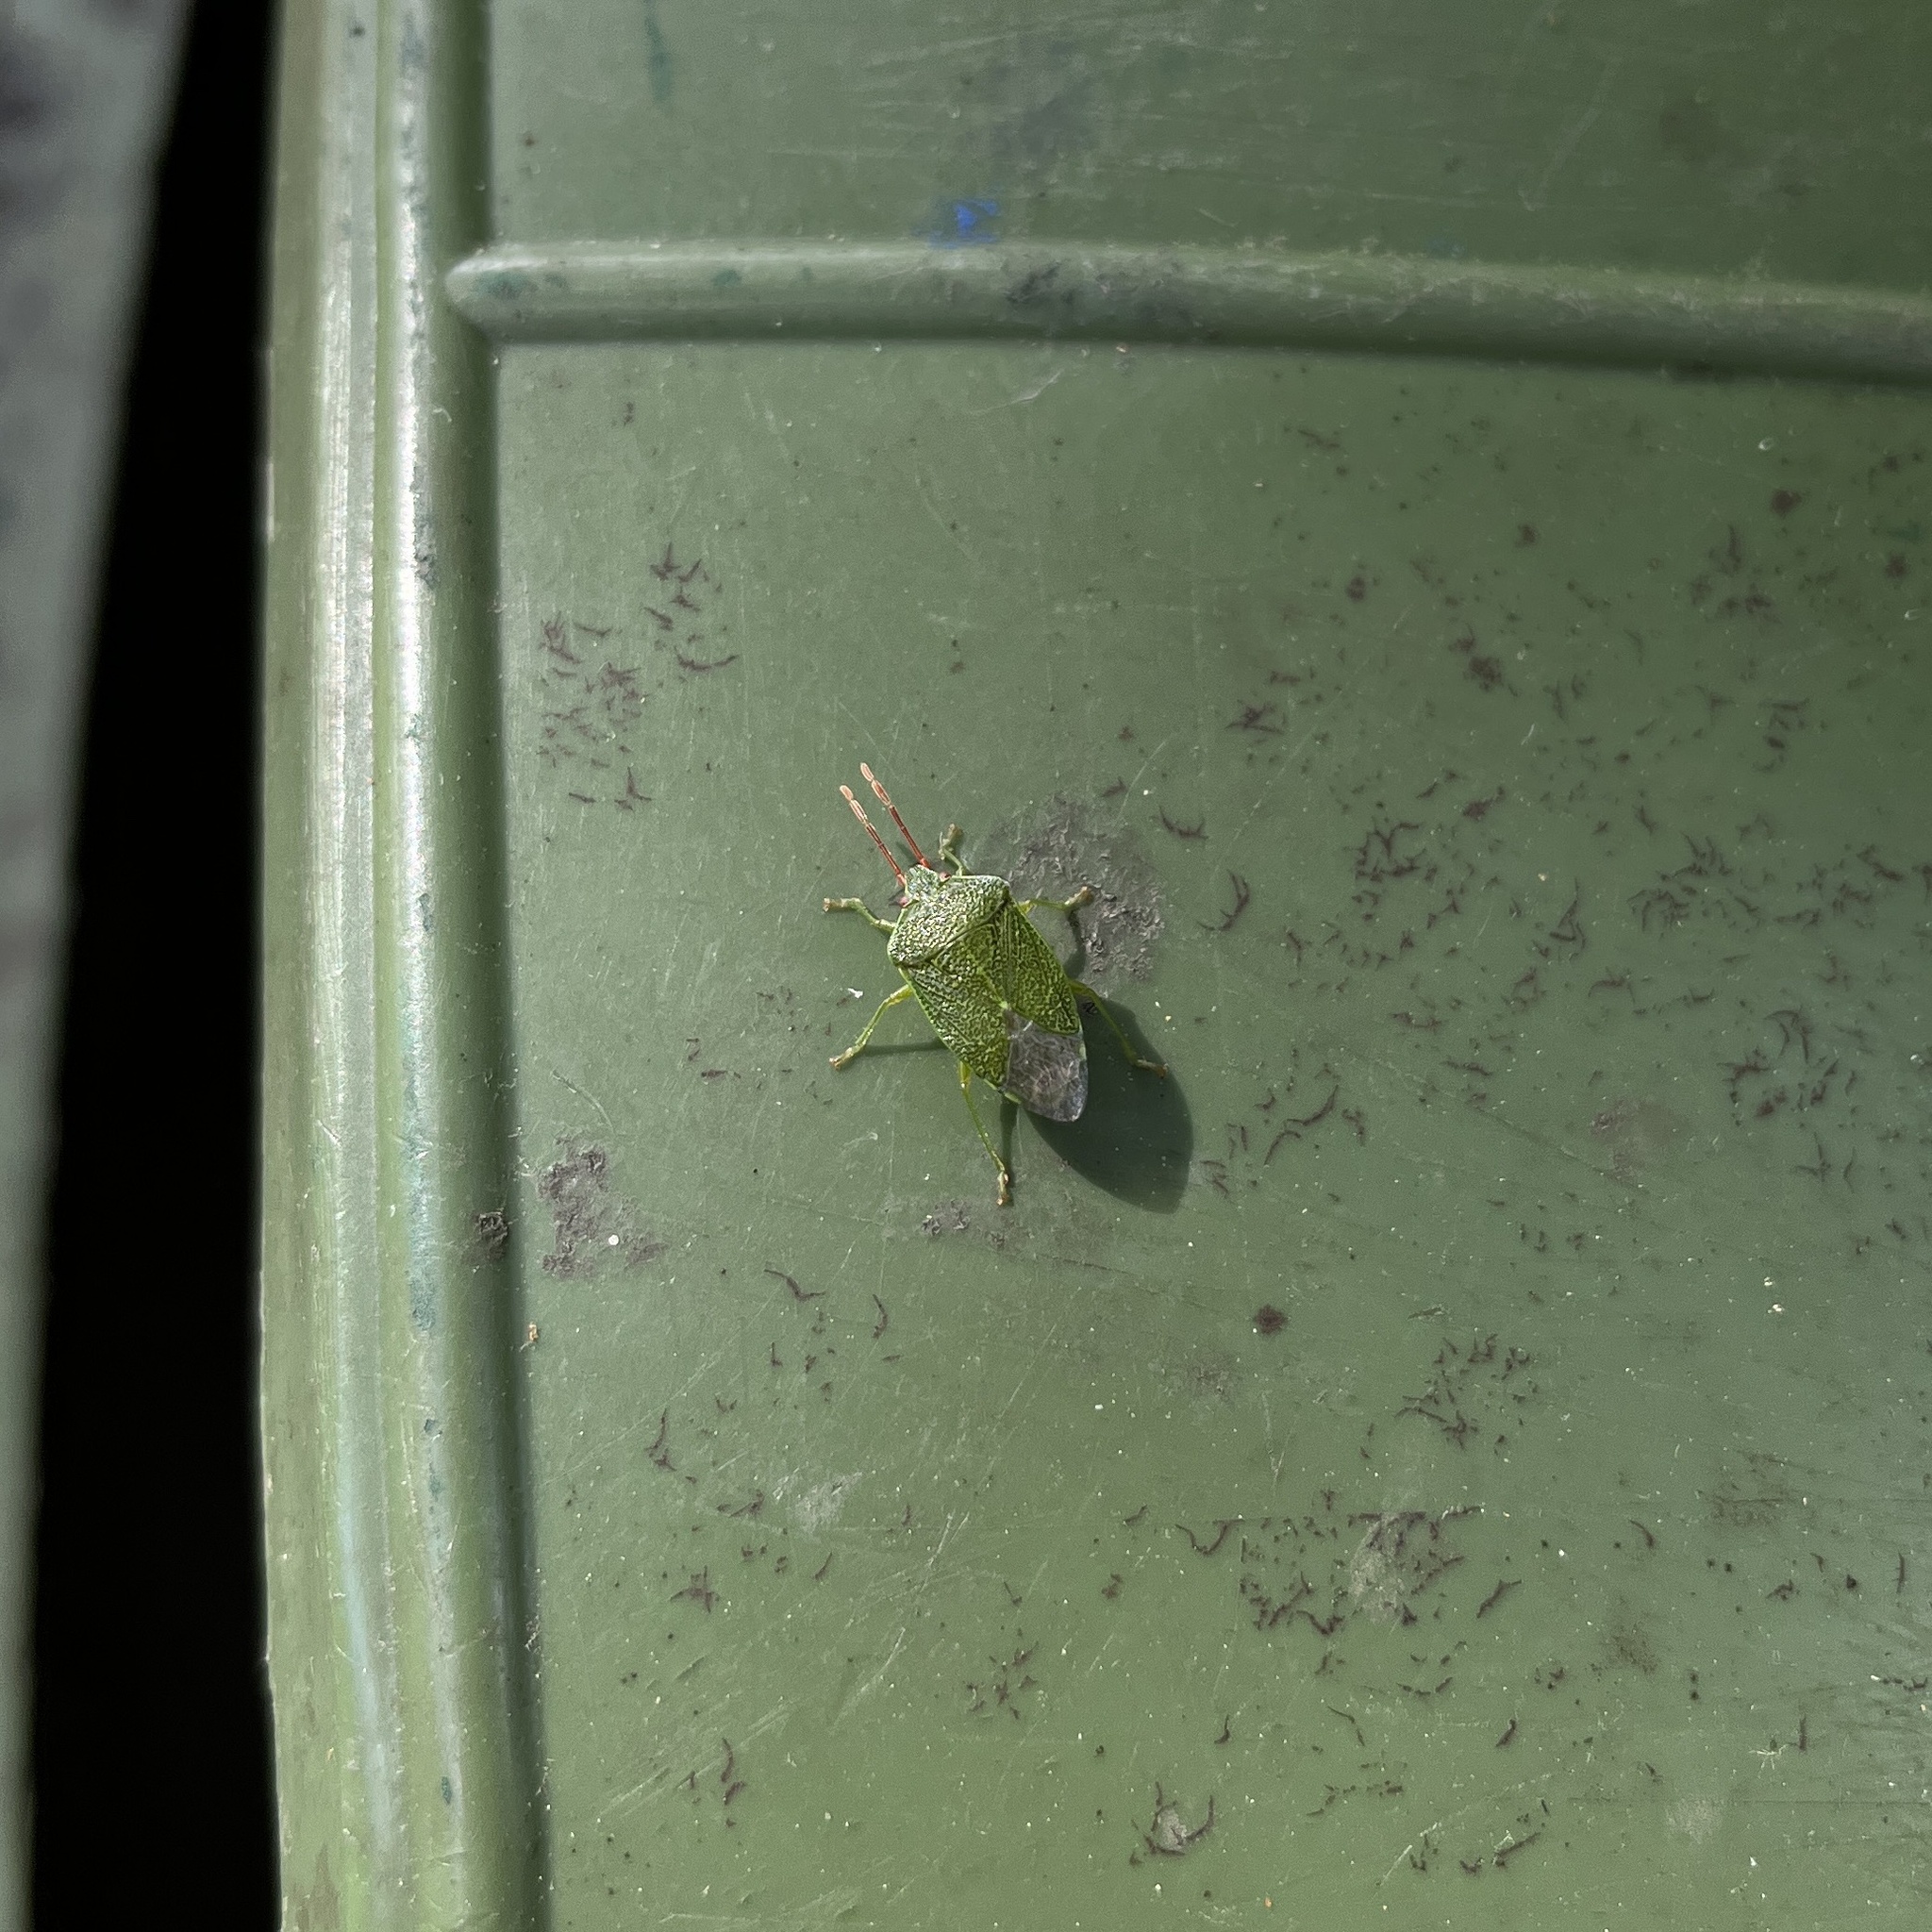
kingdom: Animalia
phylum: Arthropoda
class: Insecta
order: Hemiptera
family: Acanthosomatidae
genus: Sinopla
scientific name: Sinopla perpunctatus
